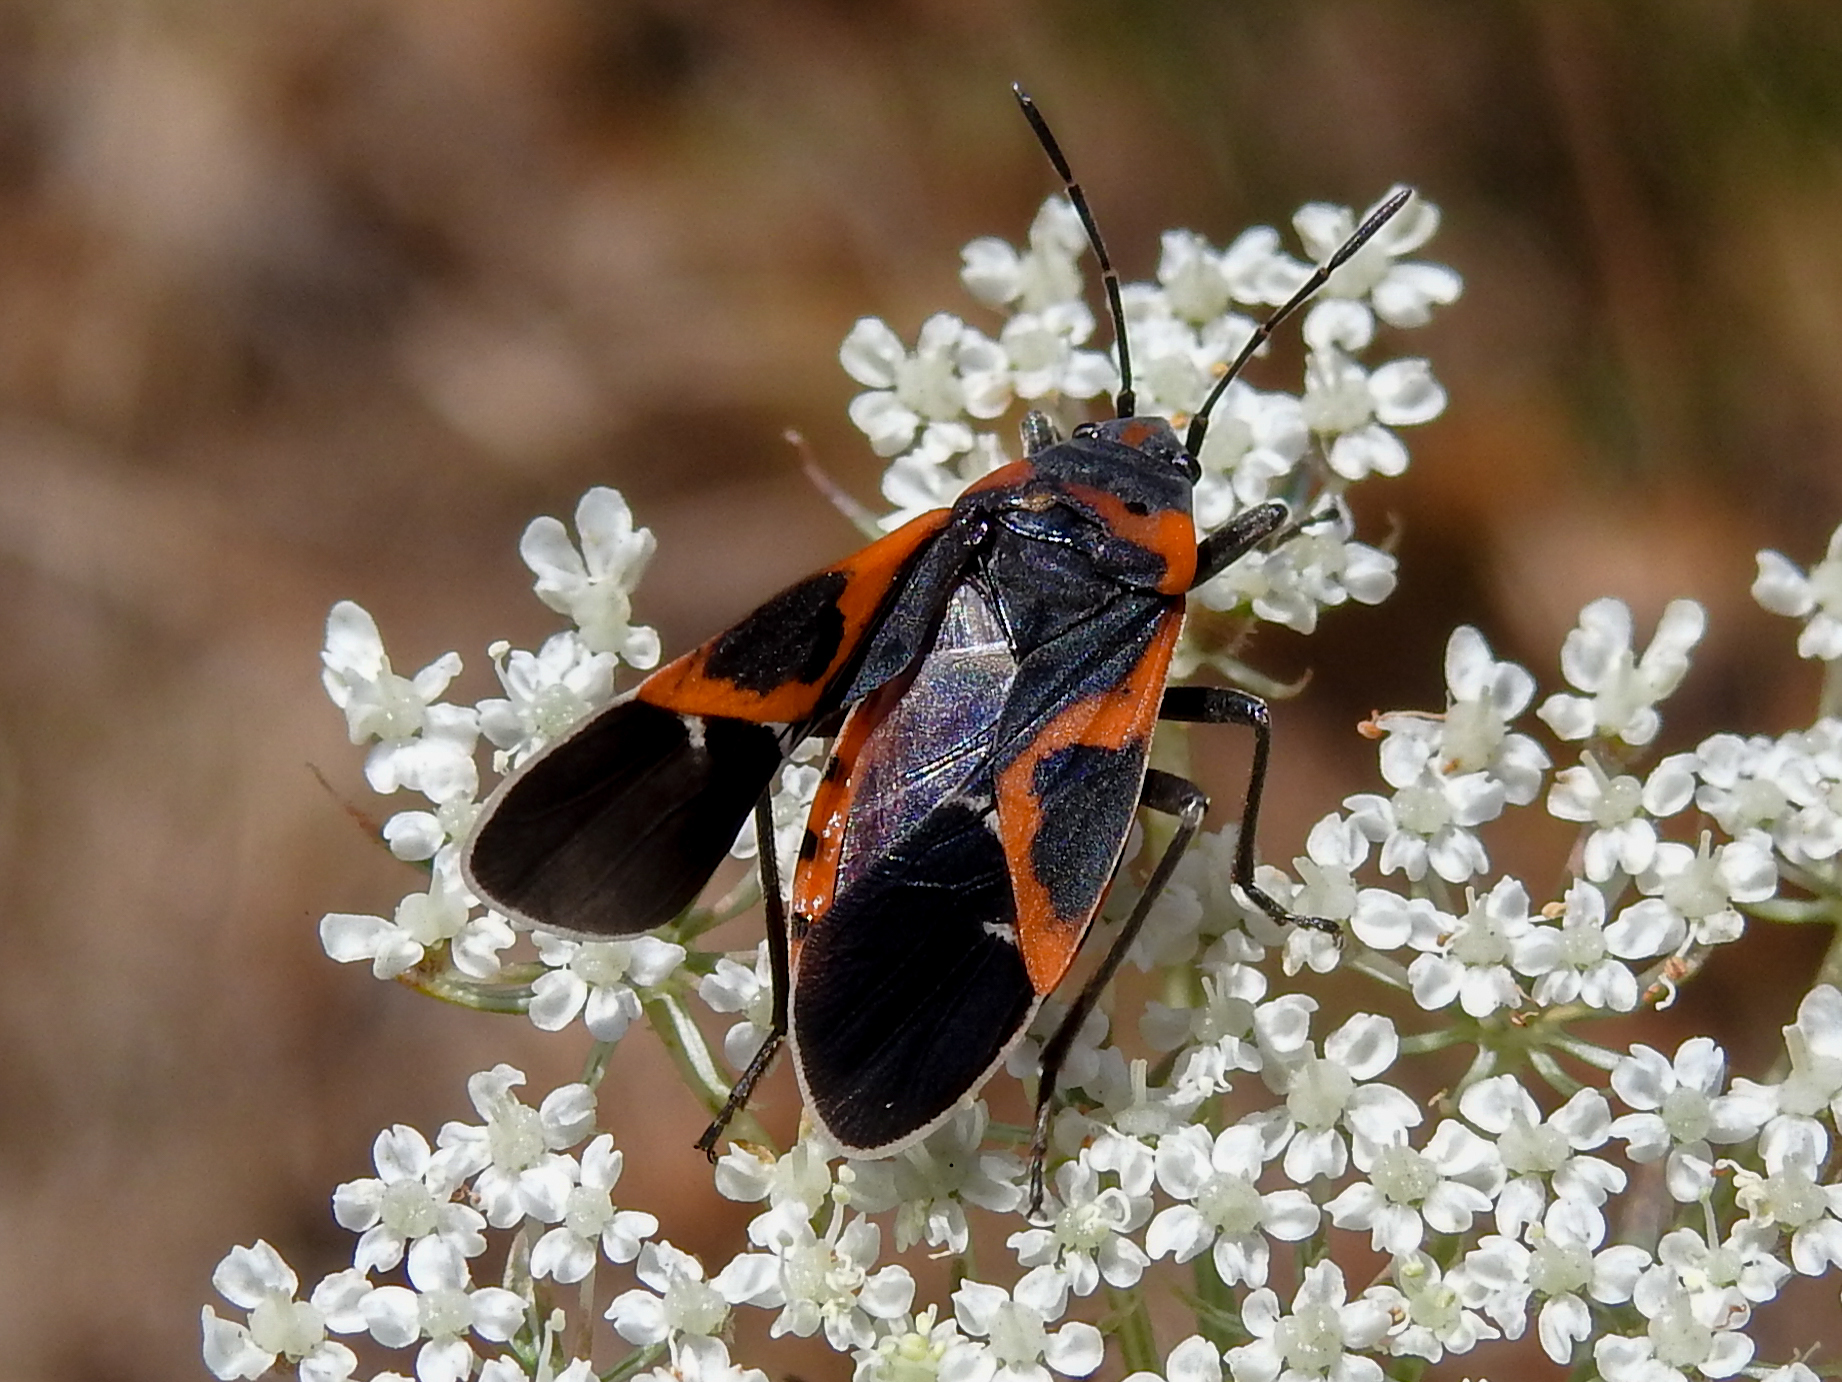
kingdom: Animalia
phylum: Arthropoda
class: Insecta
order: Hemiptera
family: Lygaeidae
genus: Lygaeus
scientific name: Lygaeus kalmii
